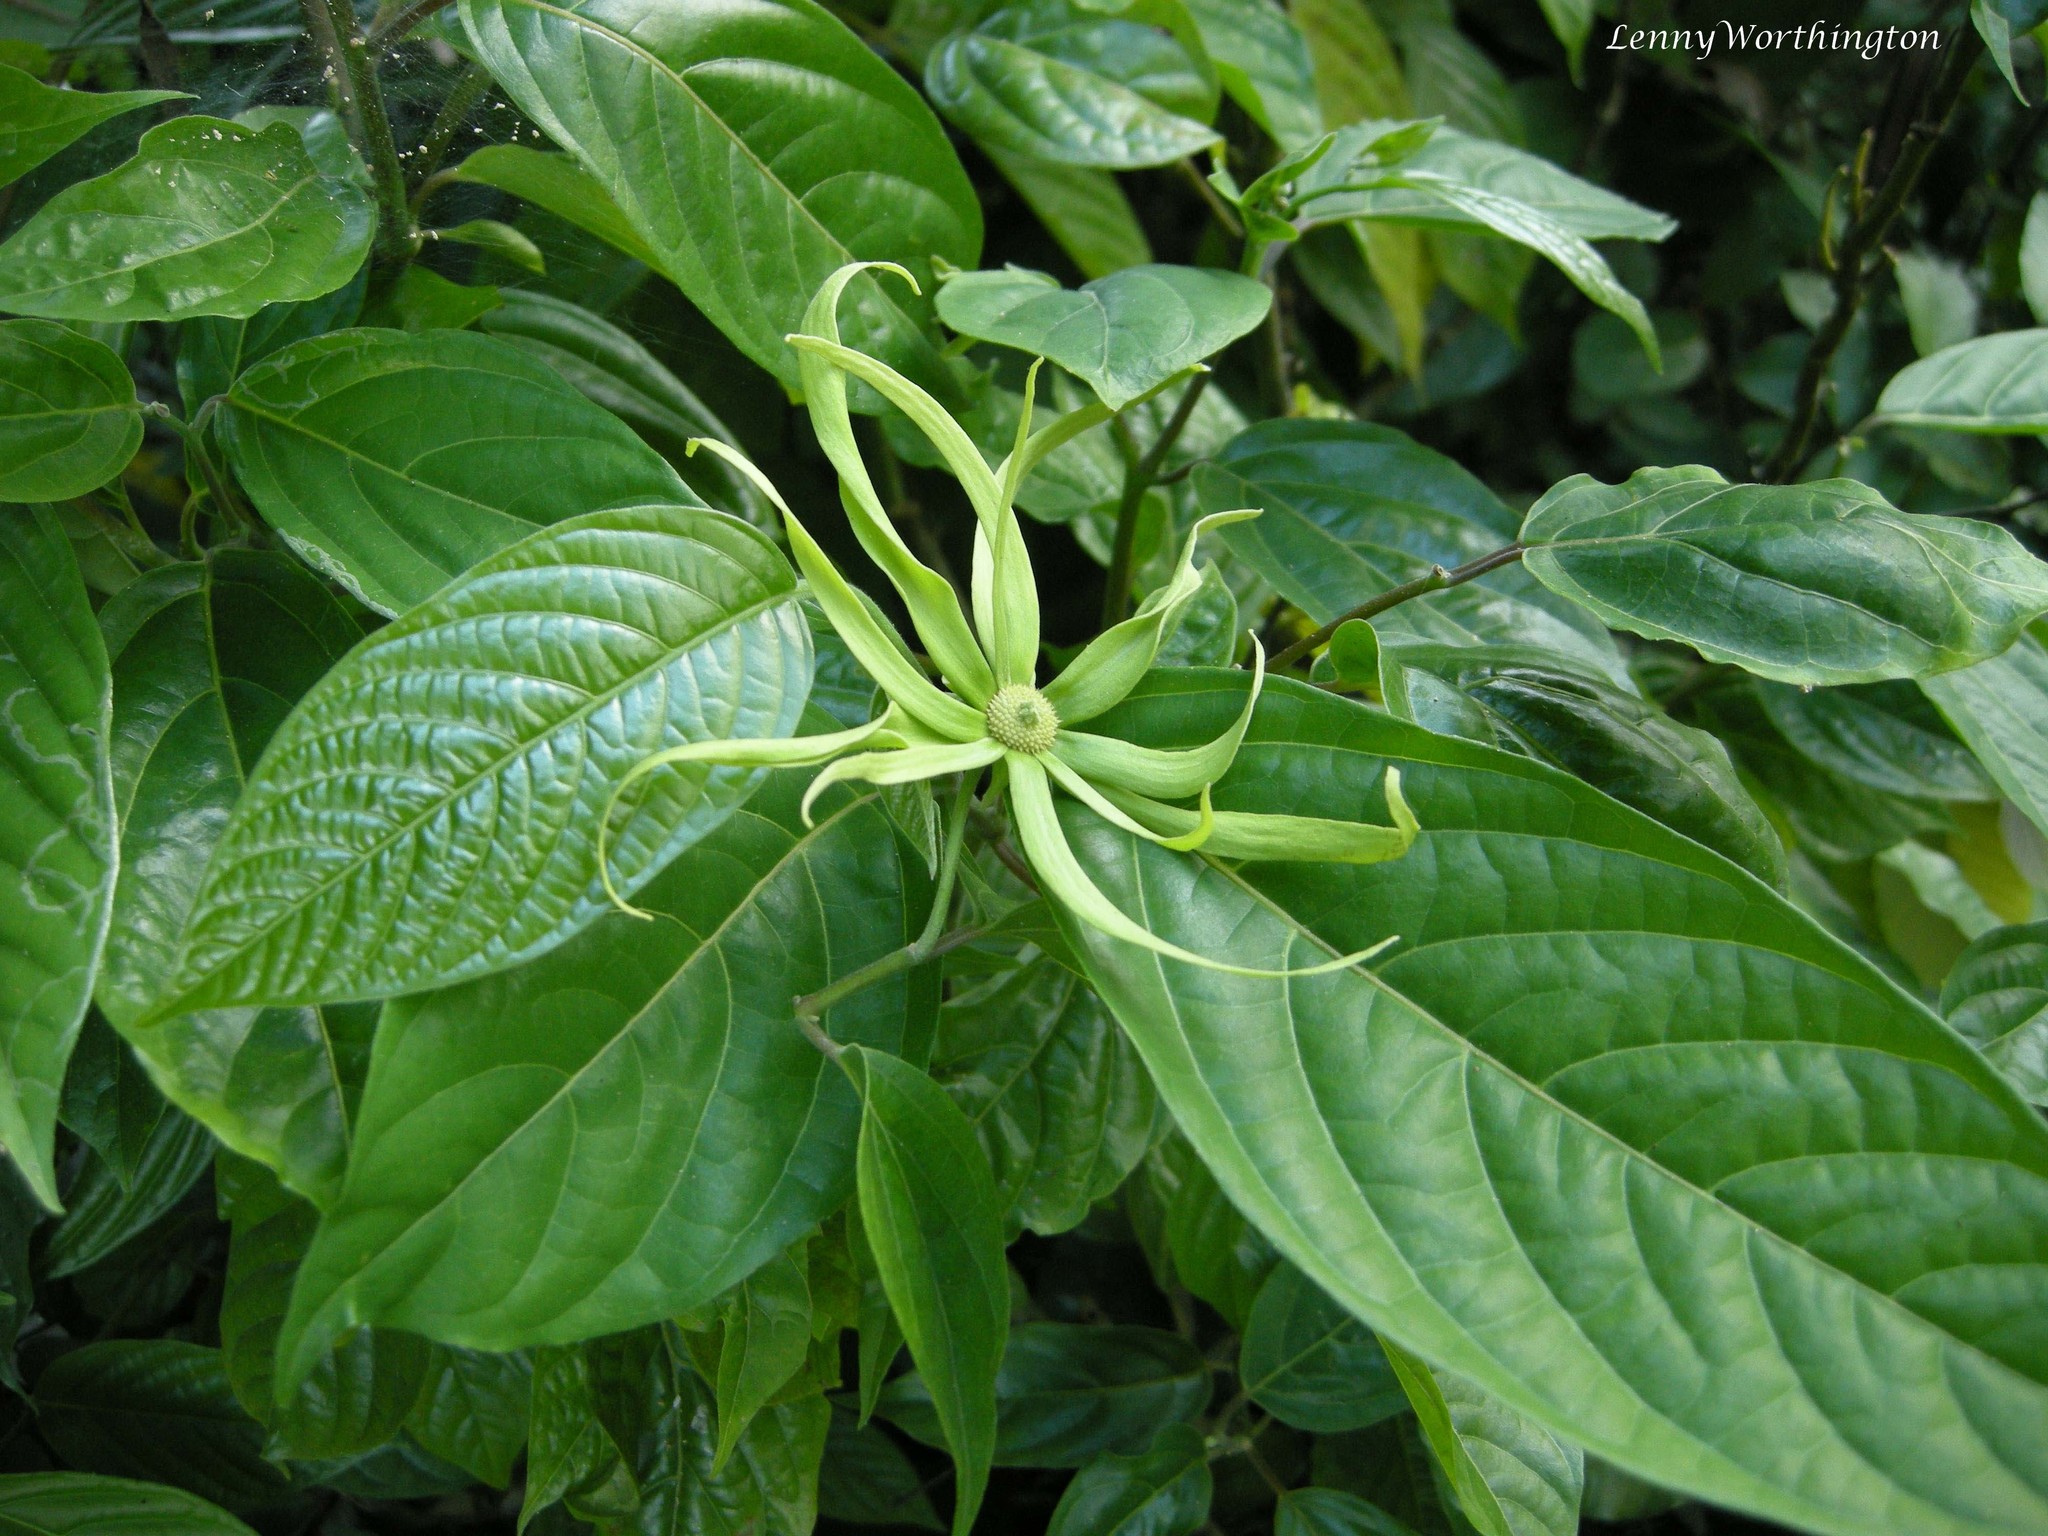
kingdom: Plantae
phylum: Tracheophyta
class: Magnoliopsida
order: Magnoliales
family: Annonaceae
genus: Cananga
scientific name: Cananga odorata
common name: Cananga tree
